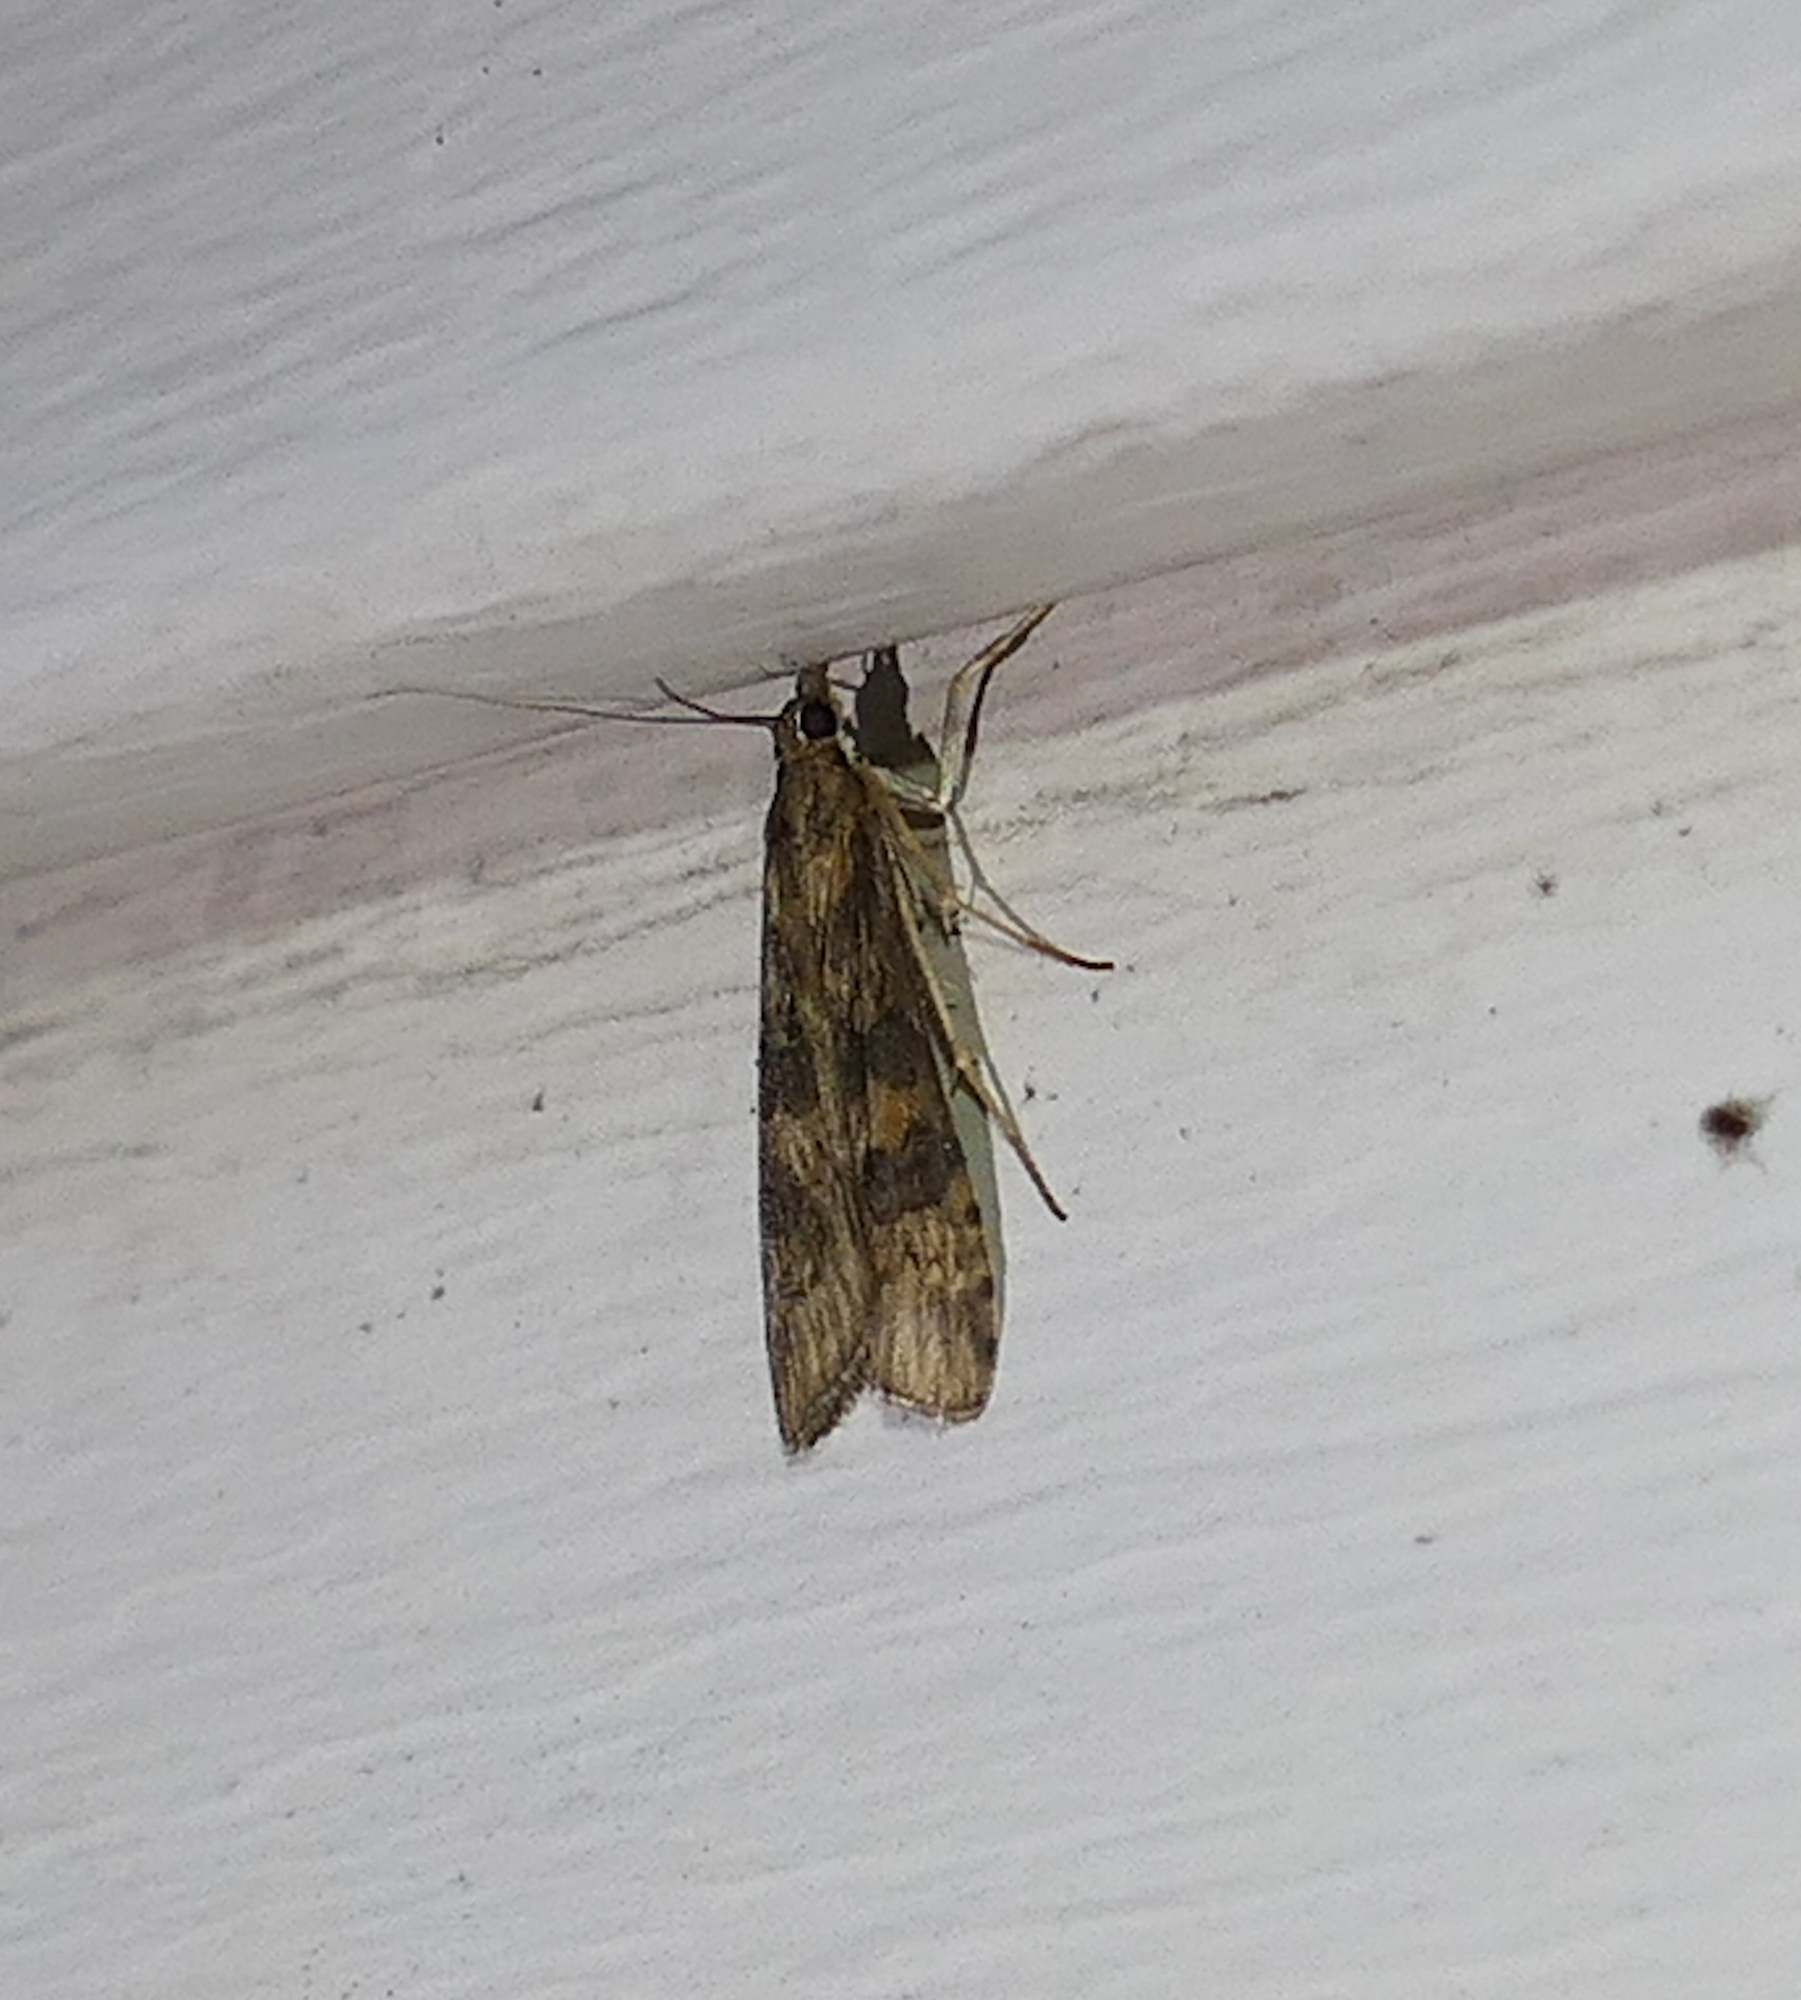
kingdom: Animalia
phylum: Arthropoda
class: Insecta
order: Lepidoptera
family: Crambidae
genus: Nomophila
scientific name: Nomophila nearctica
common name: American rush veneer
